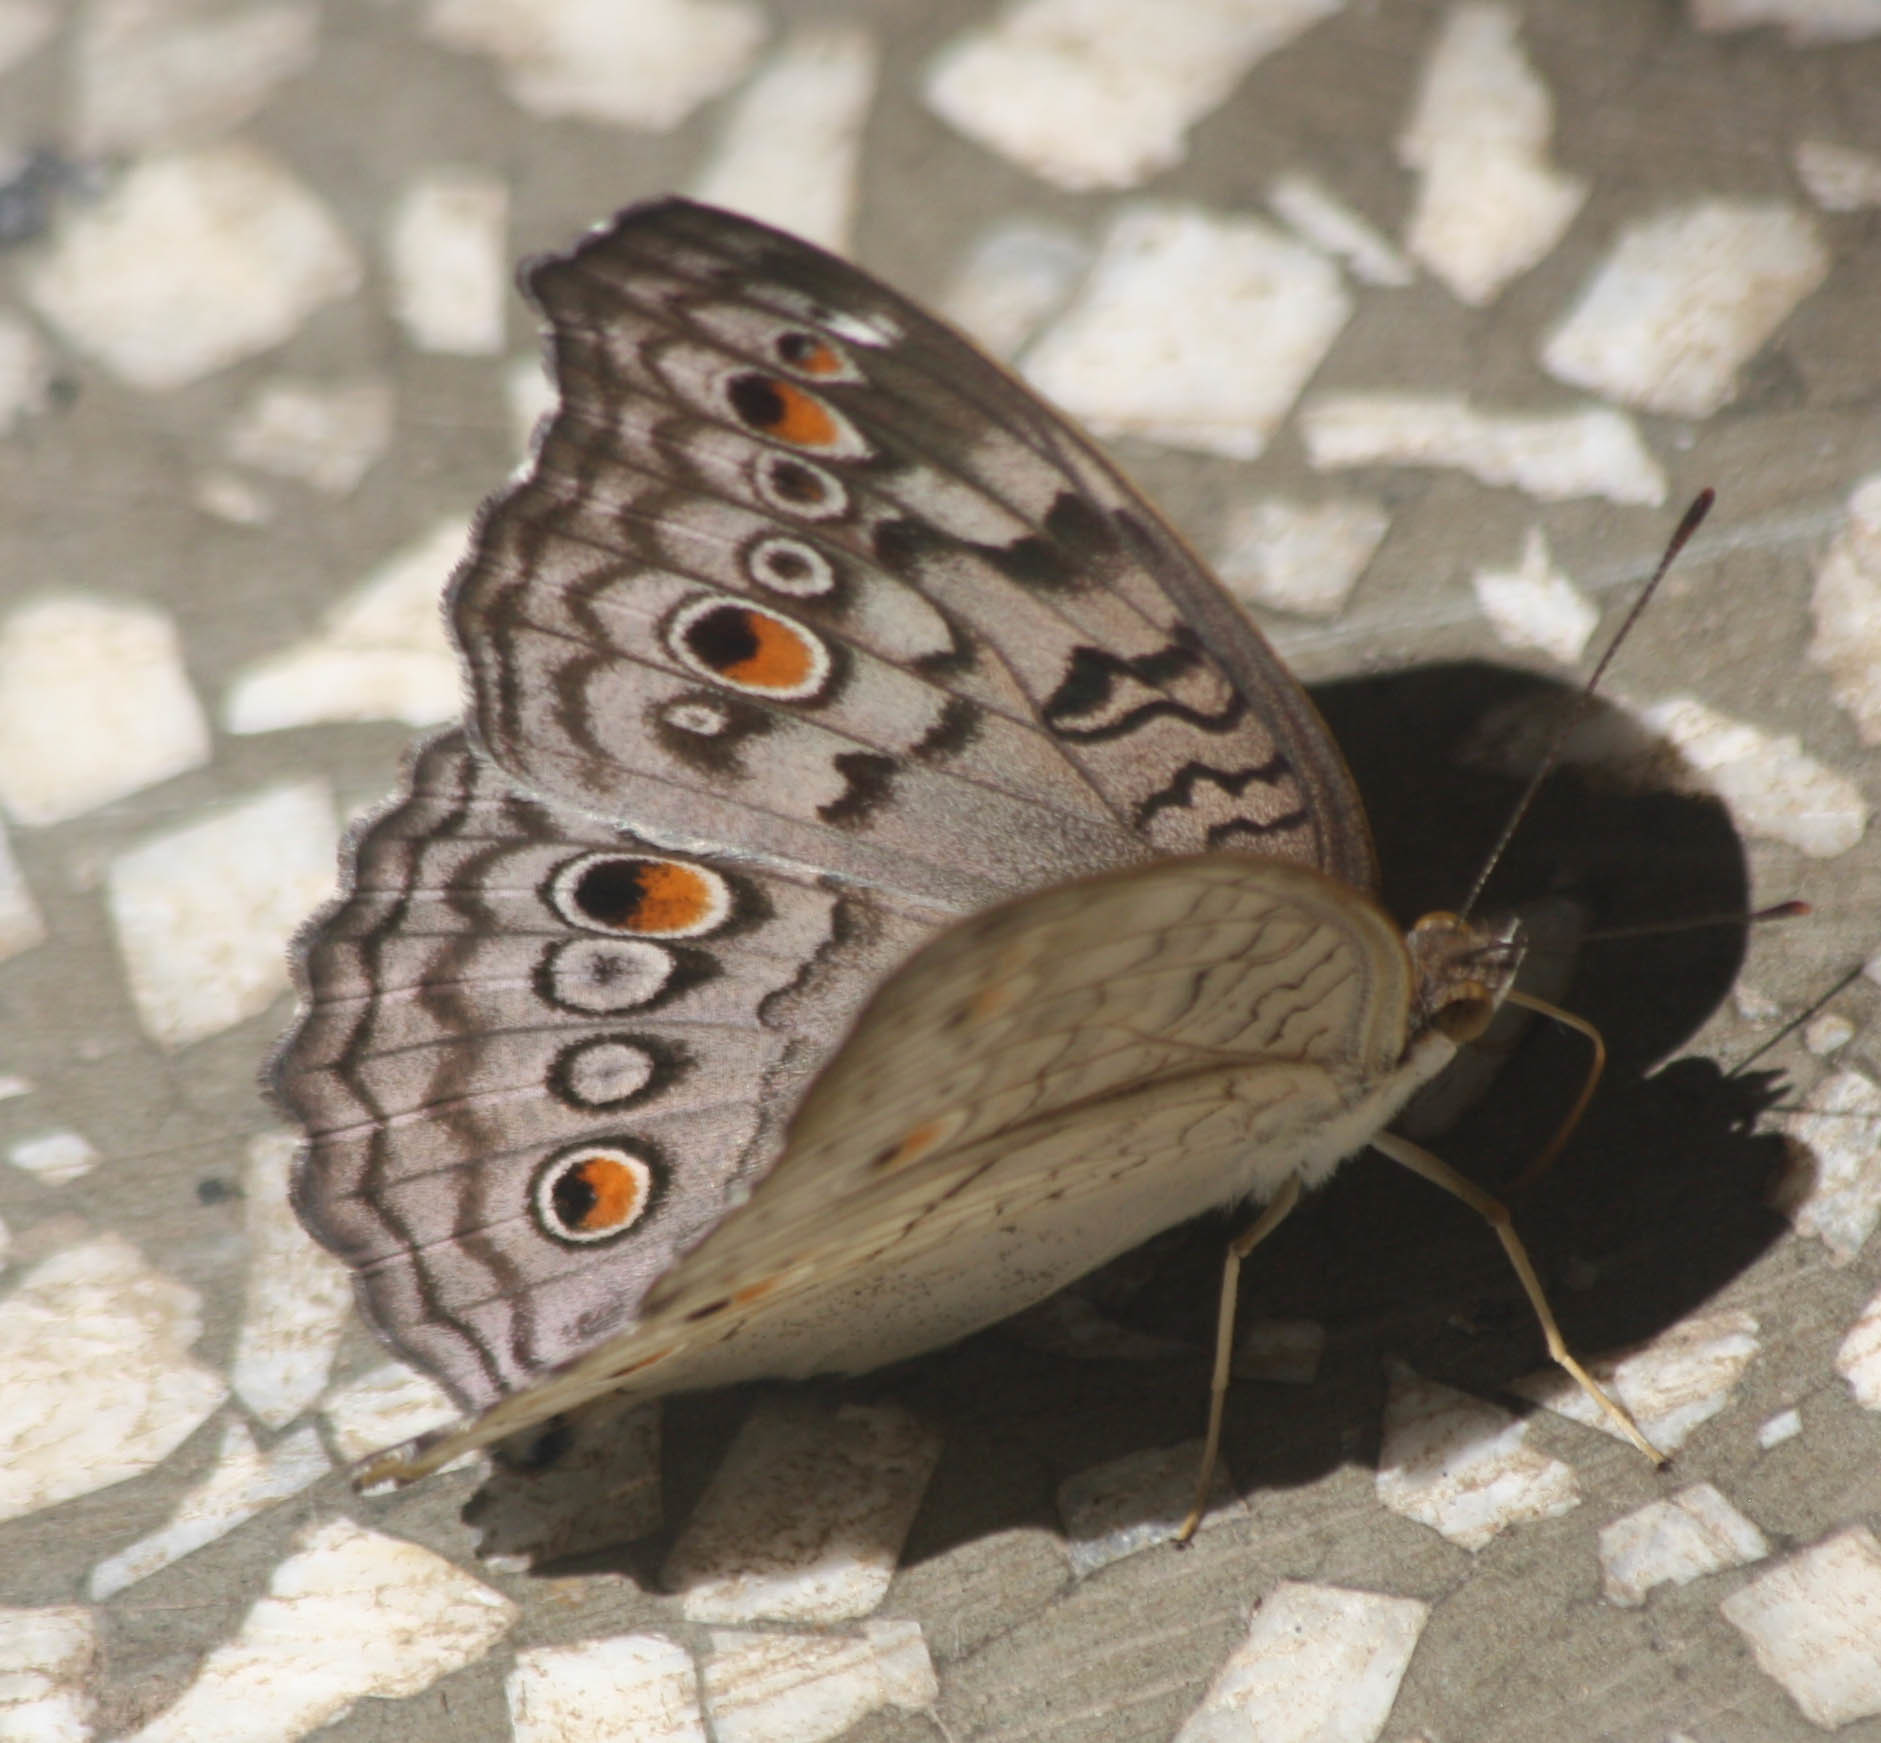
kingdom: Animalia
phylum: Arthropoda
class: Insecta
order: Lepidoptera
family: Nymphalidae
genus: Junonia
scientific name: Junonia atlites
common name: Grey pansy
